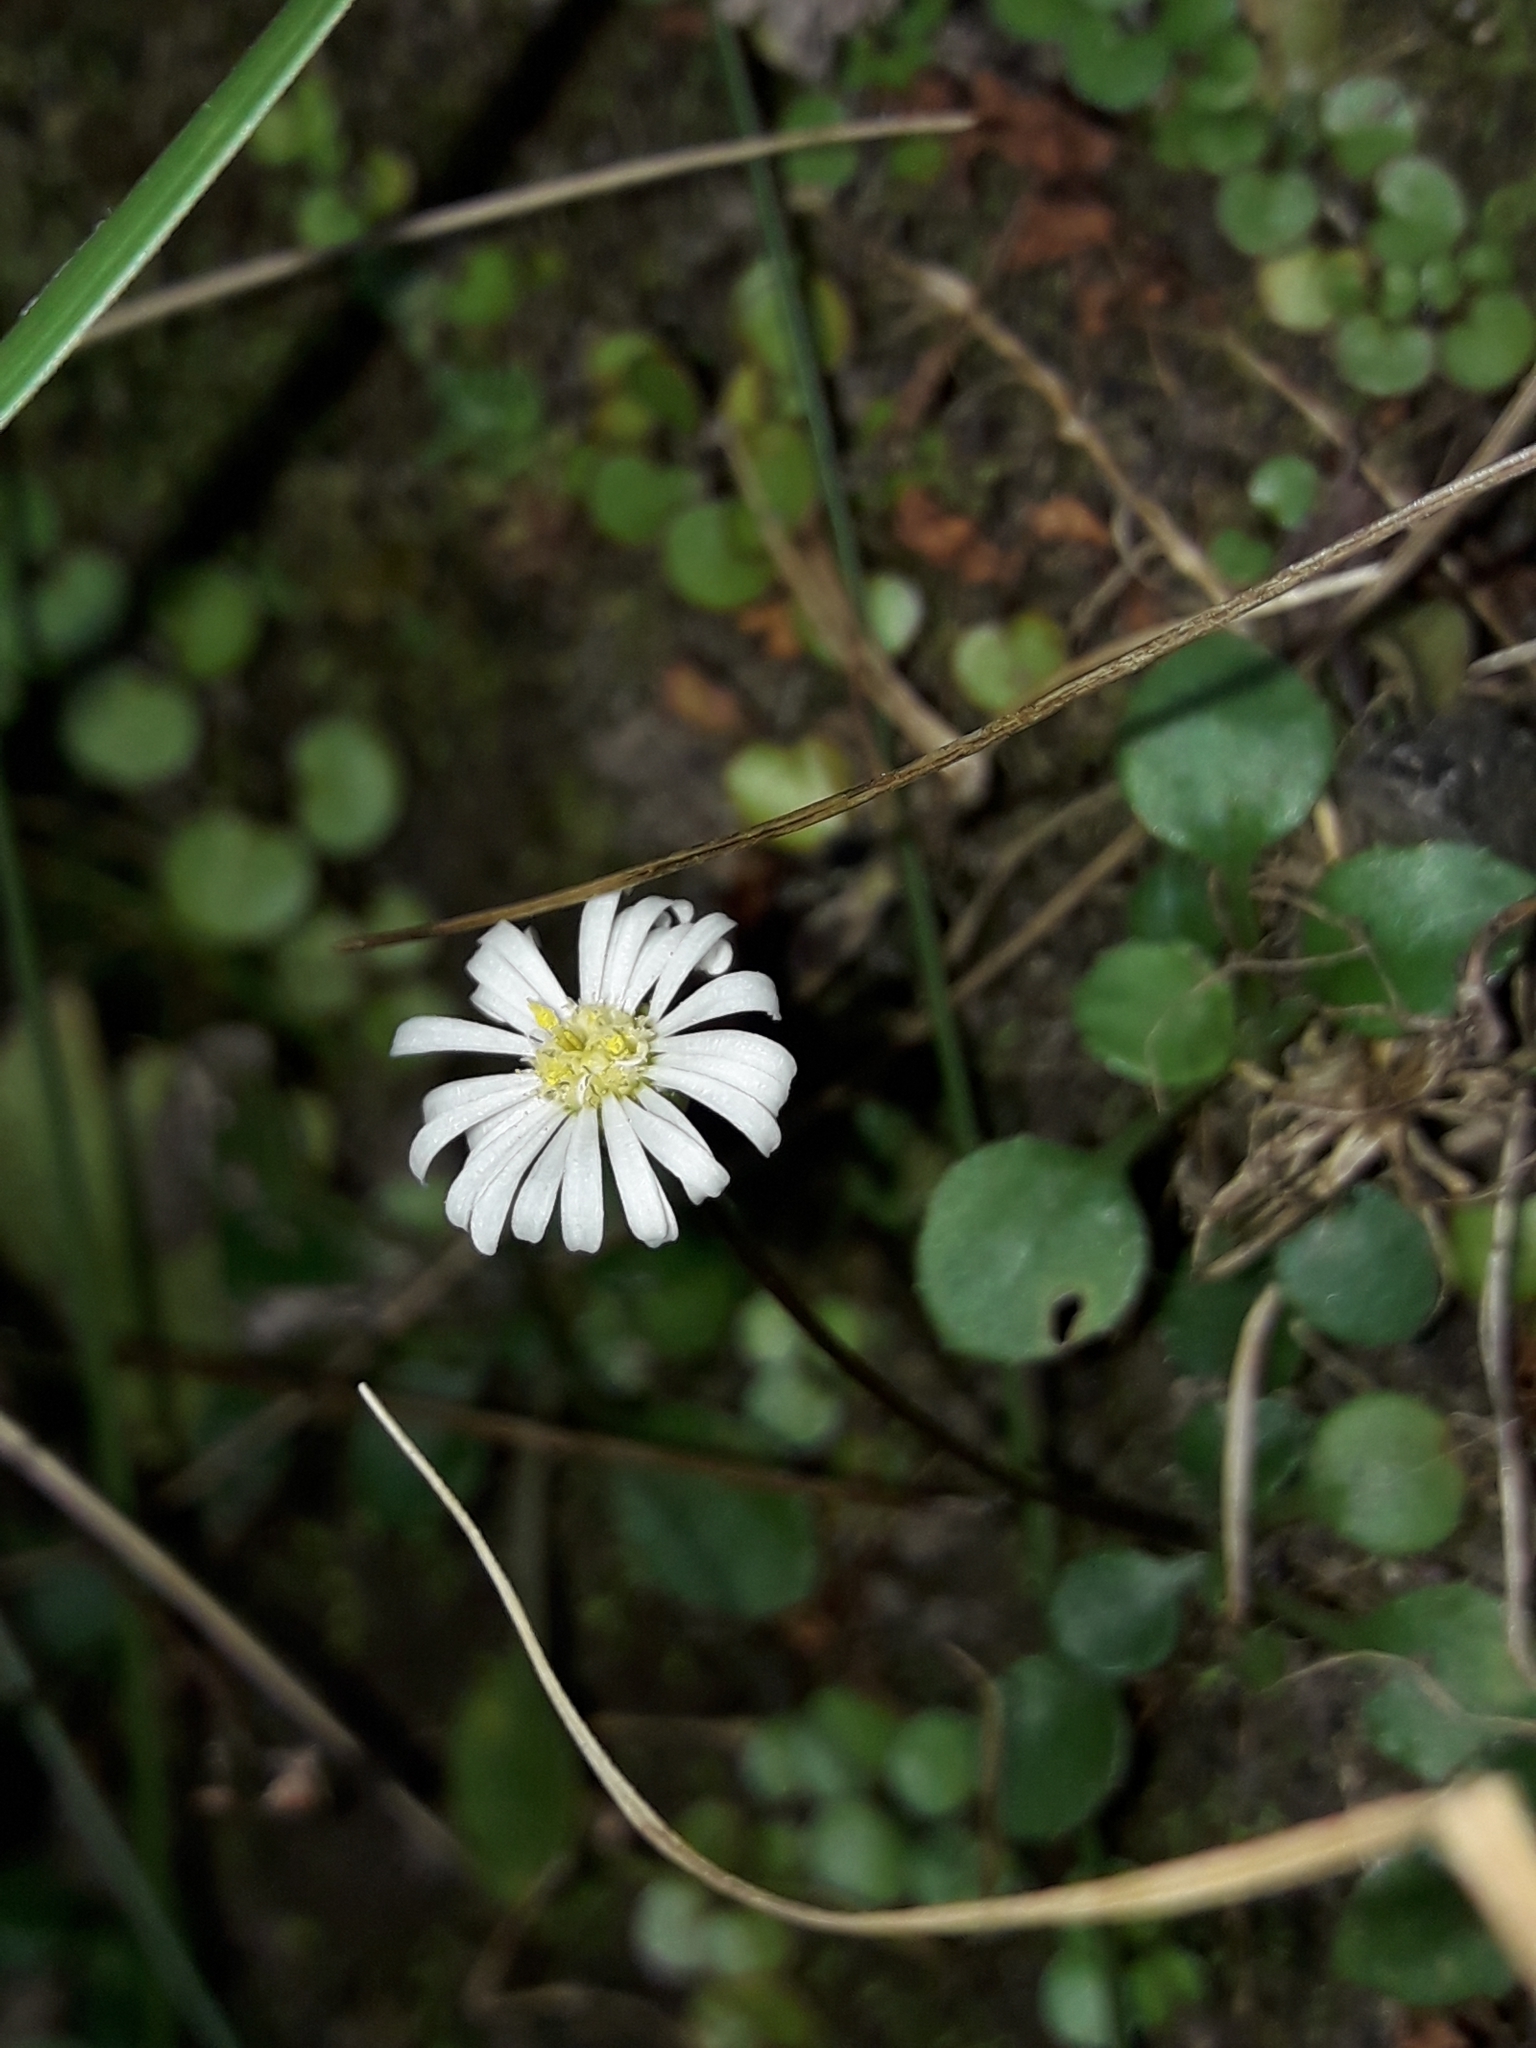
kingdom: Plantae
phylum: Tracheophyta
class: Magnoliopsida
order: Asterales
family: Asteraceae
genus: Lagenophora
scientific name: Lagenophora pumila
